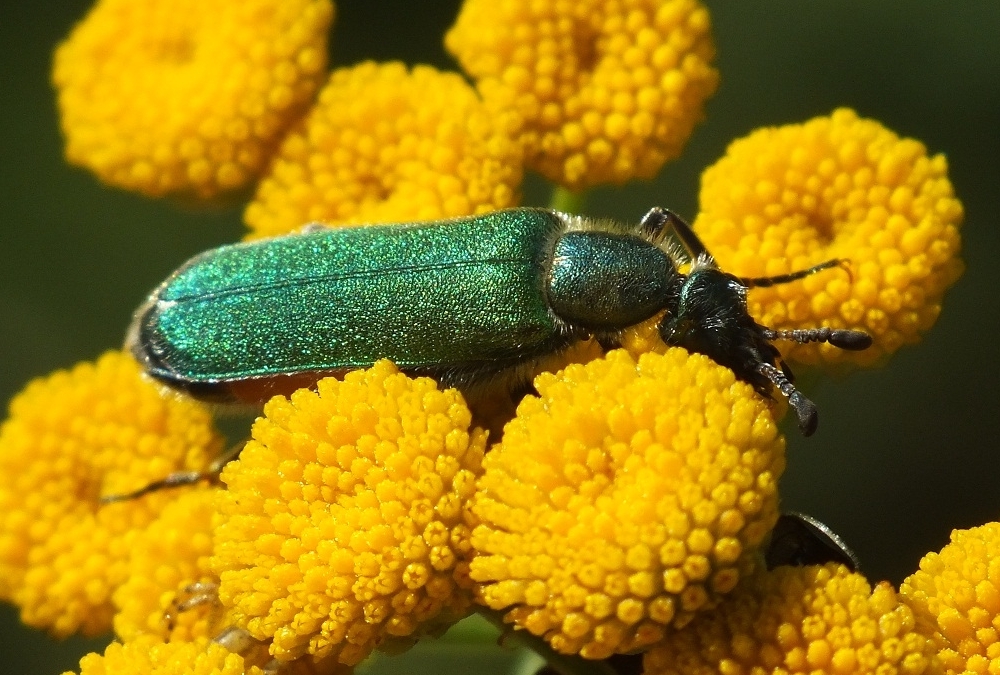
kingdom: Animalia
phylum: Arthropoda
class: Insecta
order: Coleoptera
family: Meloidae
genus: Cerocoma
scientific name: Cerocoma schreberi
